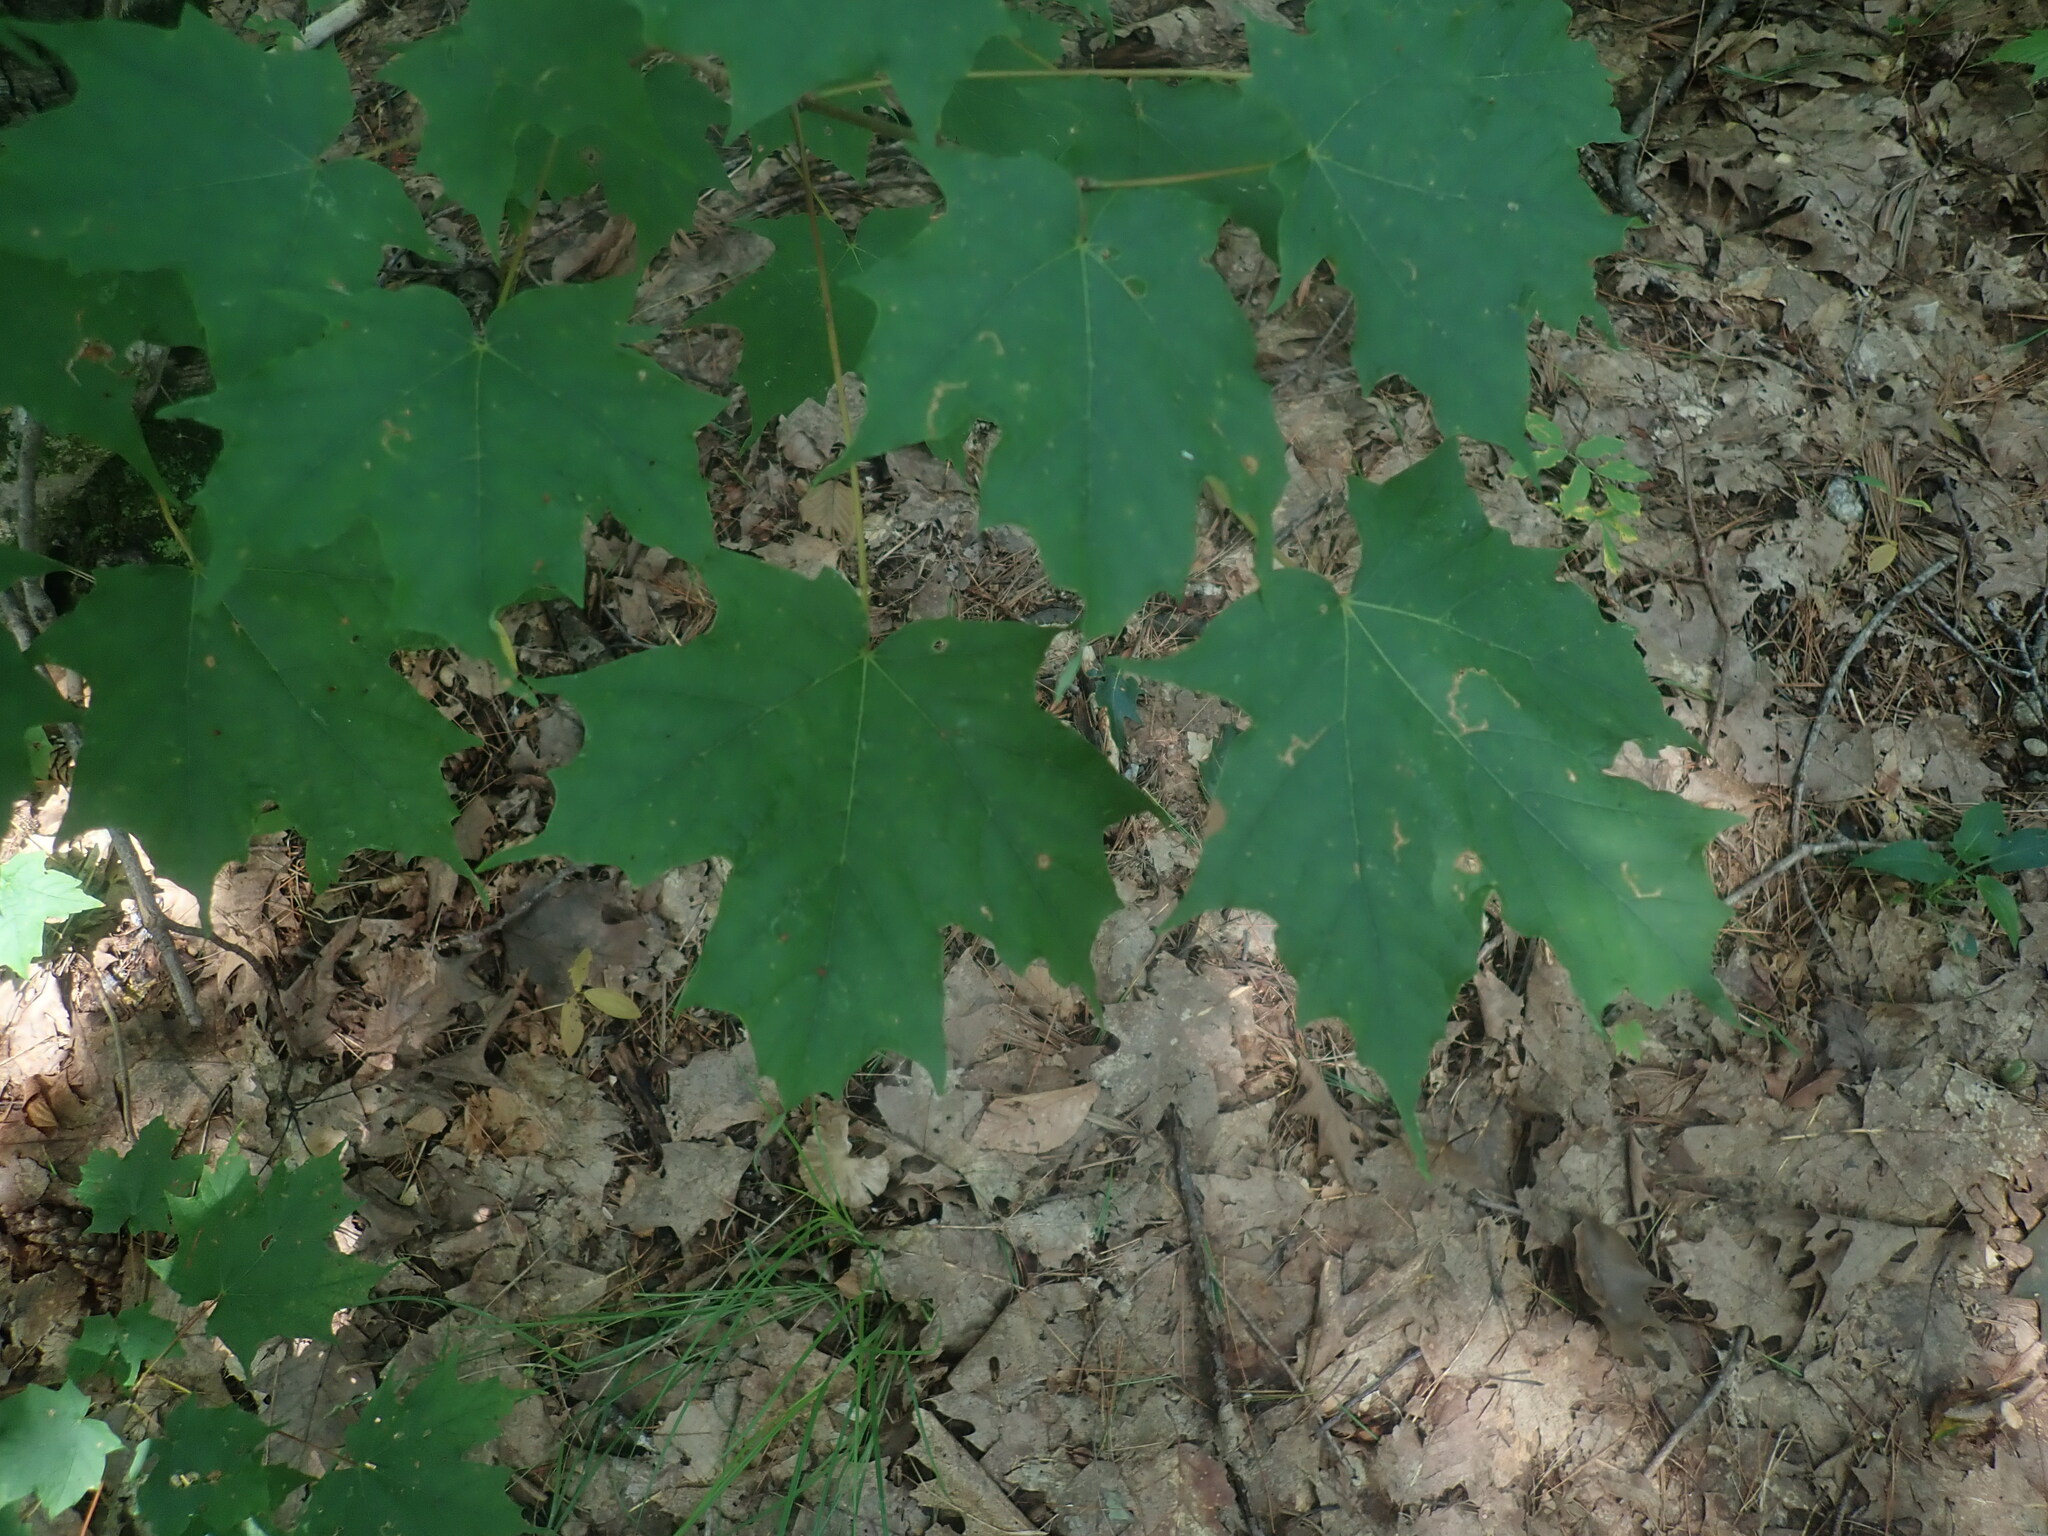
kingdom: Plantae
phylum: Tracheophyta
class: Magnoliopsida
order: Sapindales
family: Sapindaceae
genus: Acer
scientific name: Acer saccharum
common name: Sugar maple
